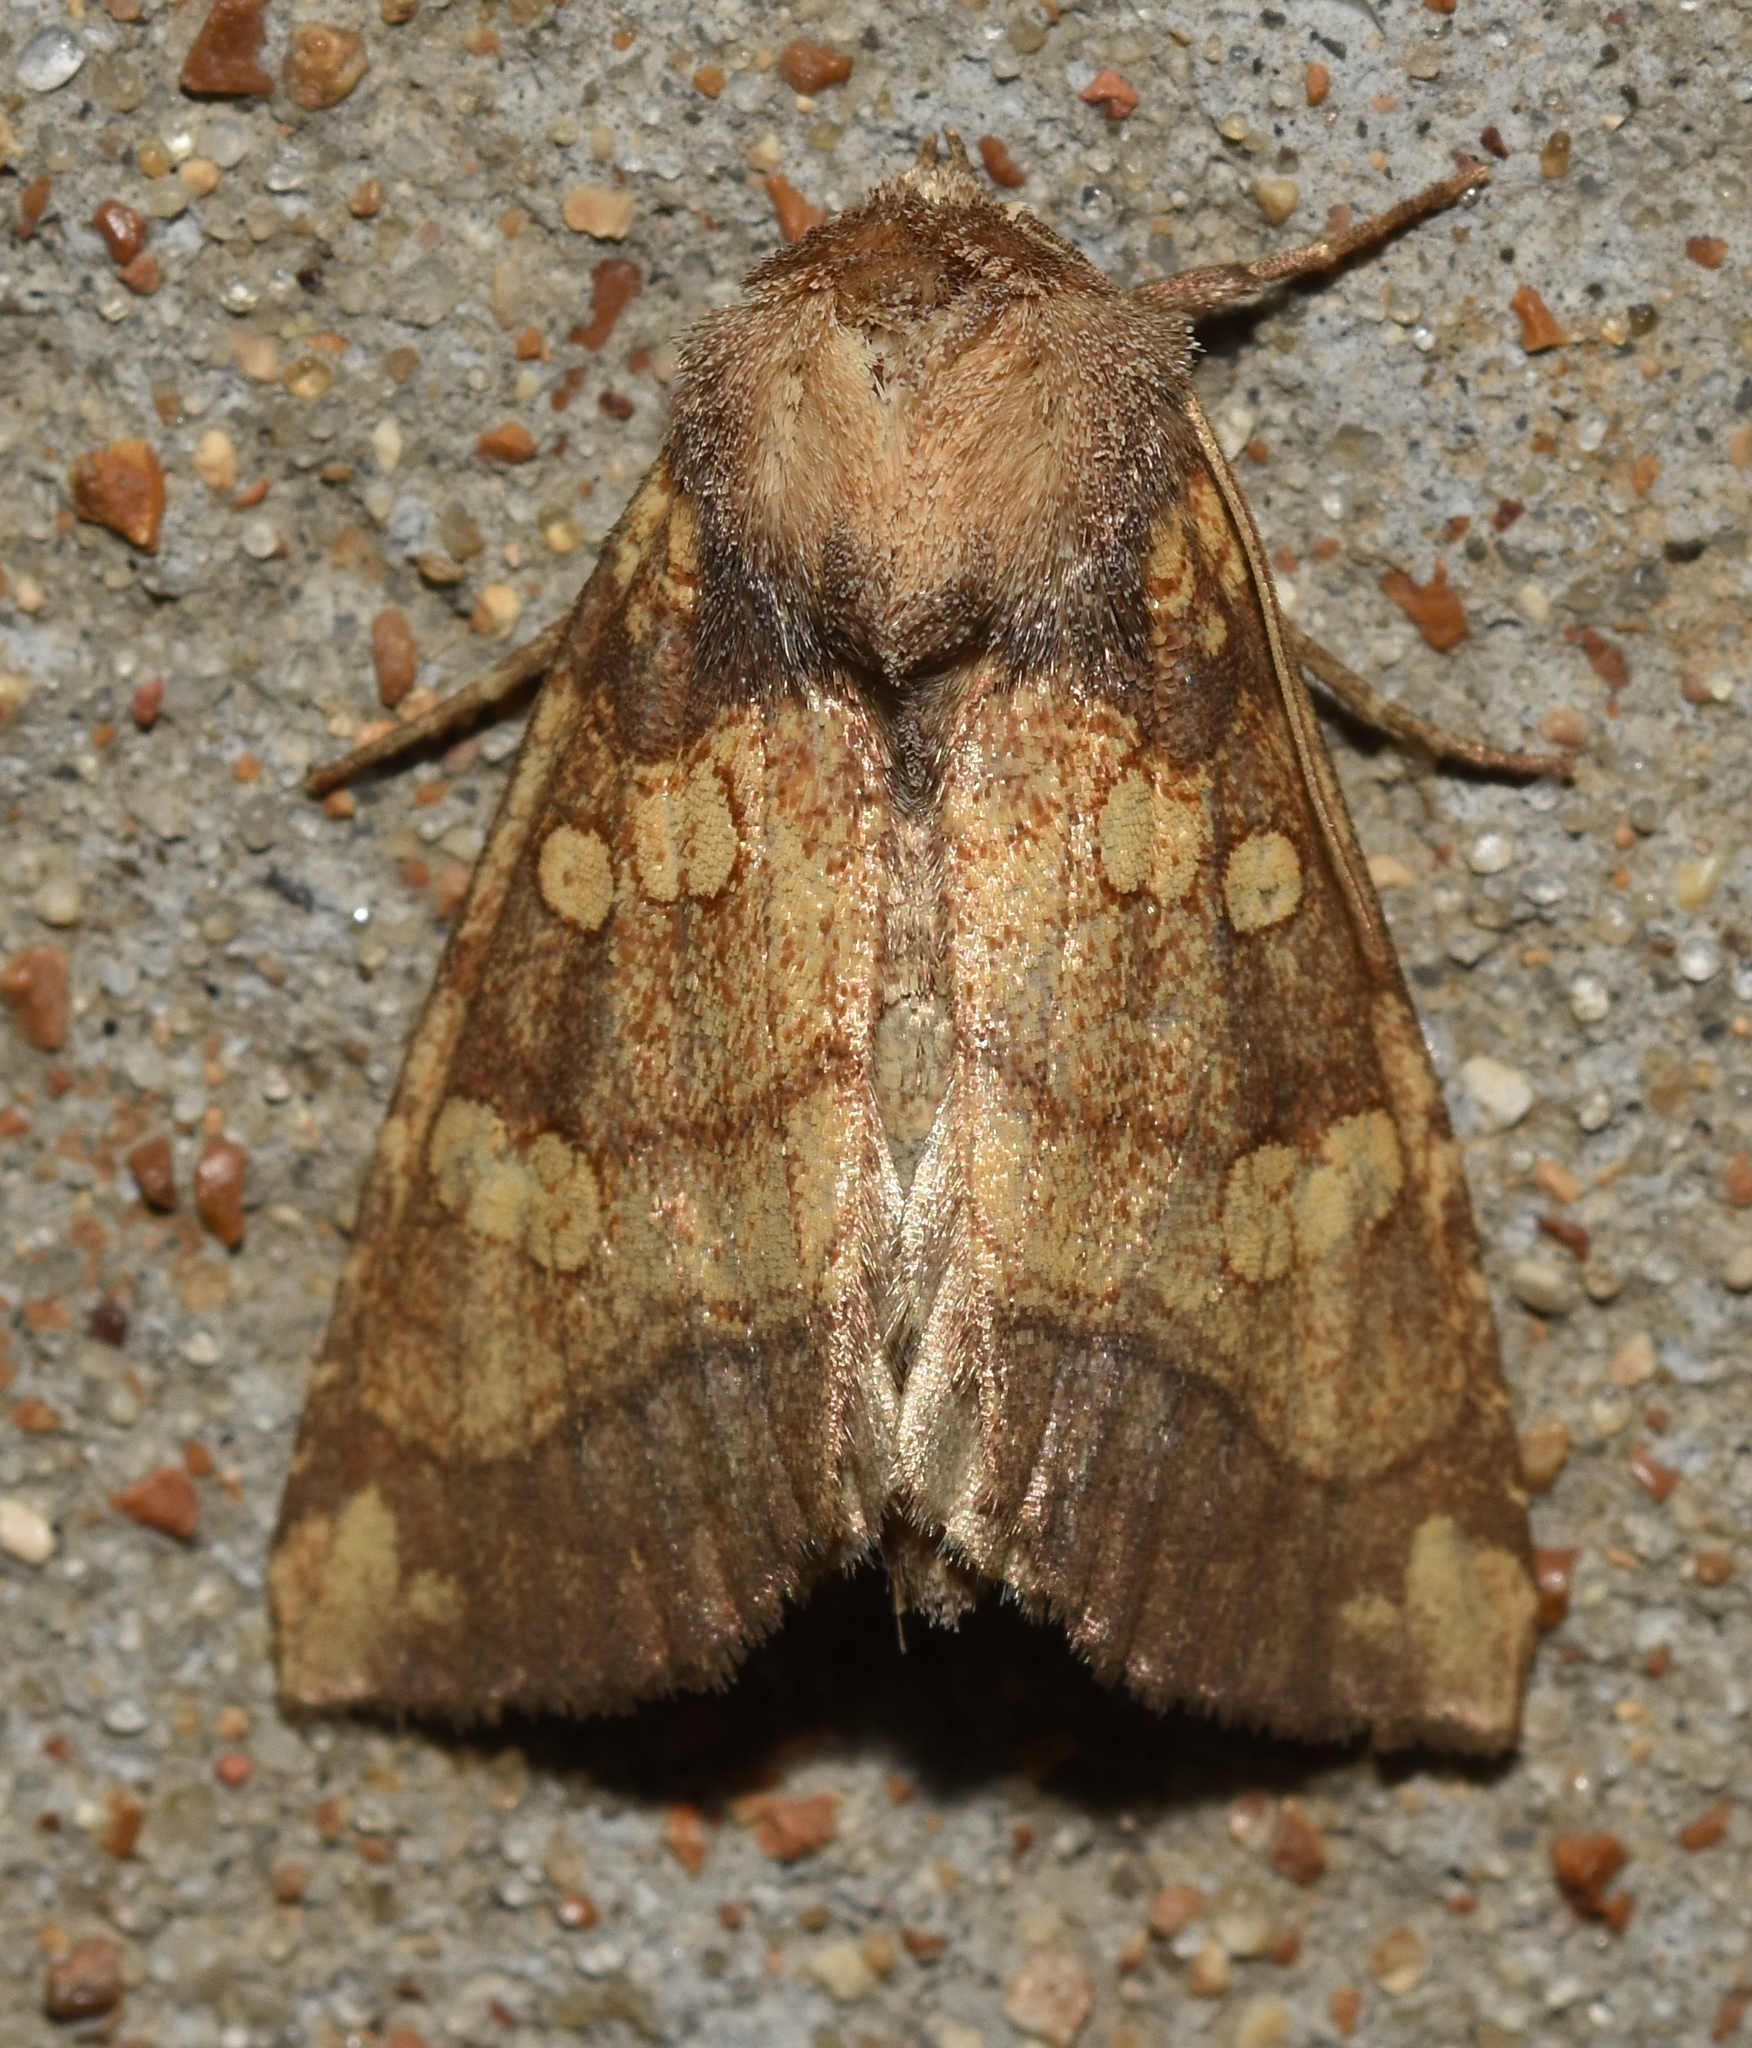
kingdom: Animalia
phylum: Arthropoda
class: Insecta
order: Lepidoptera
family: Noctuidae
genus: Papaipema
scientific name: Papaipema cataphracta
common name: Burdock borer
